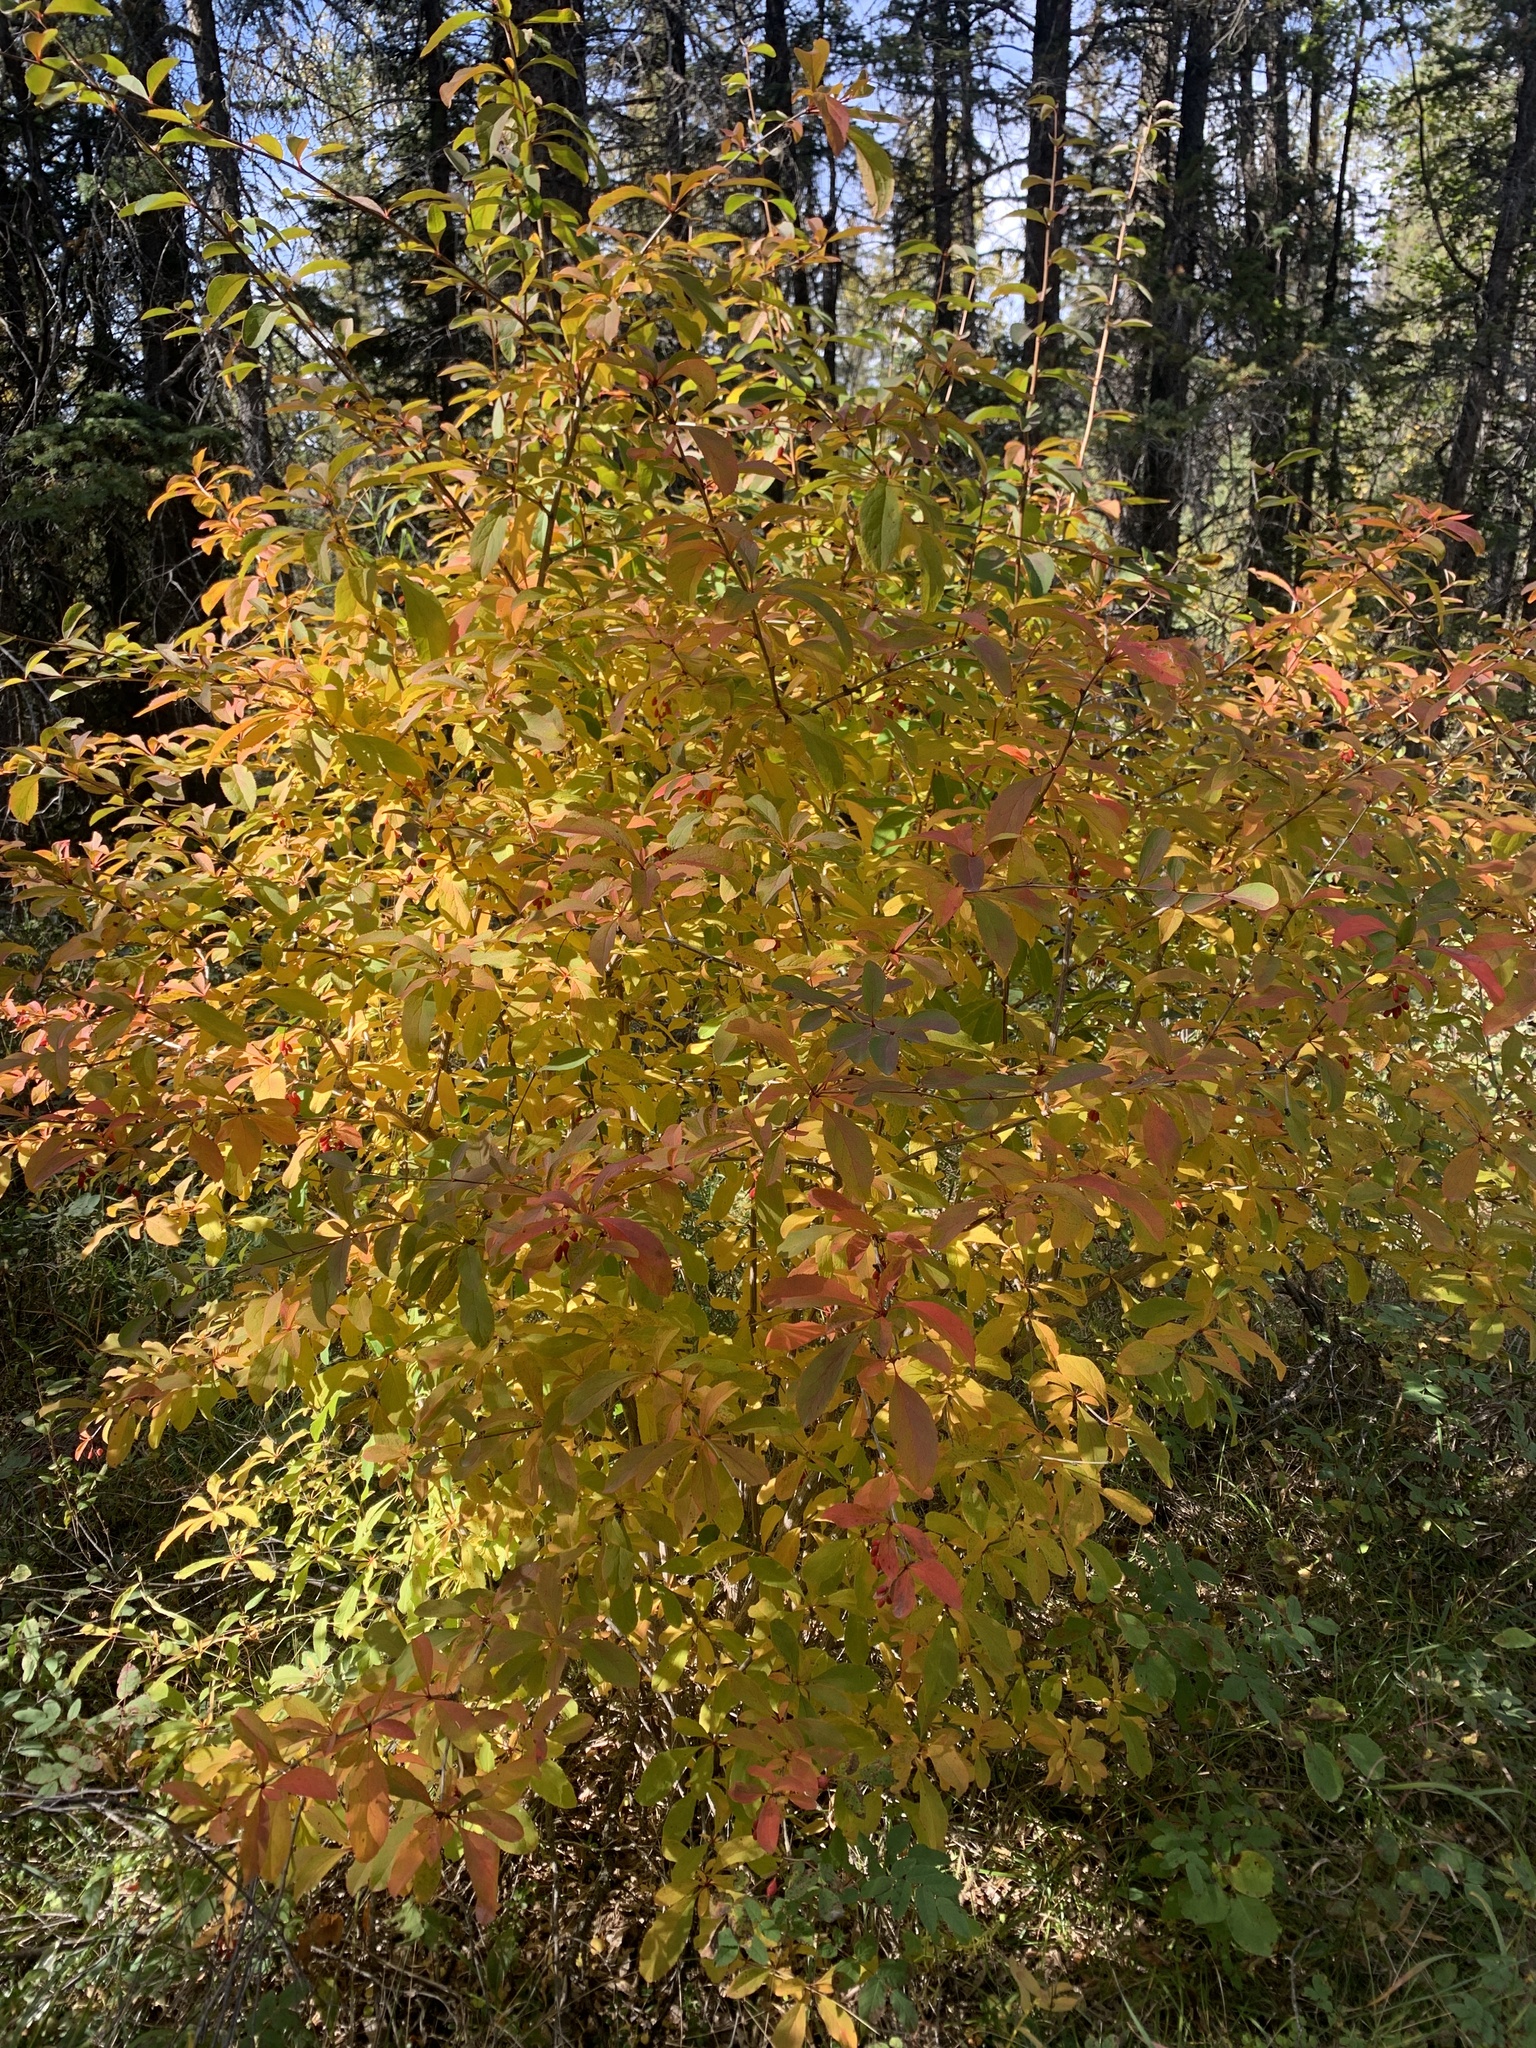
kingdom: Plantae
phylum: Tracheophyta
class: Magnoliopsida
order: Ranunculales
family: Berberidaceae
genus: Berberis
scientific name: Berberis vulgaris
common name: Barberry
